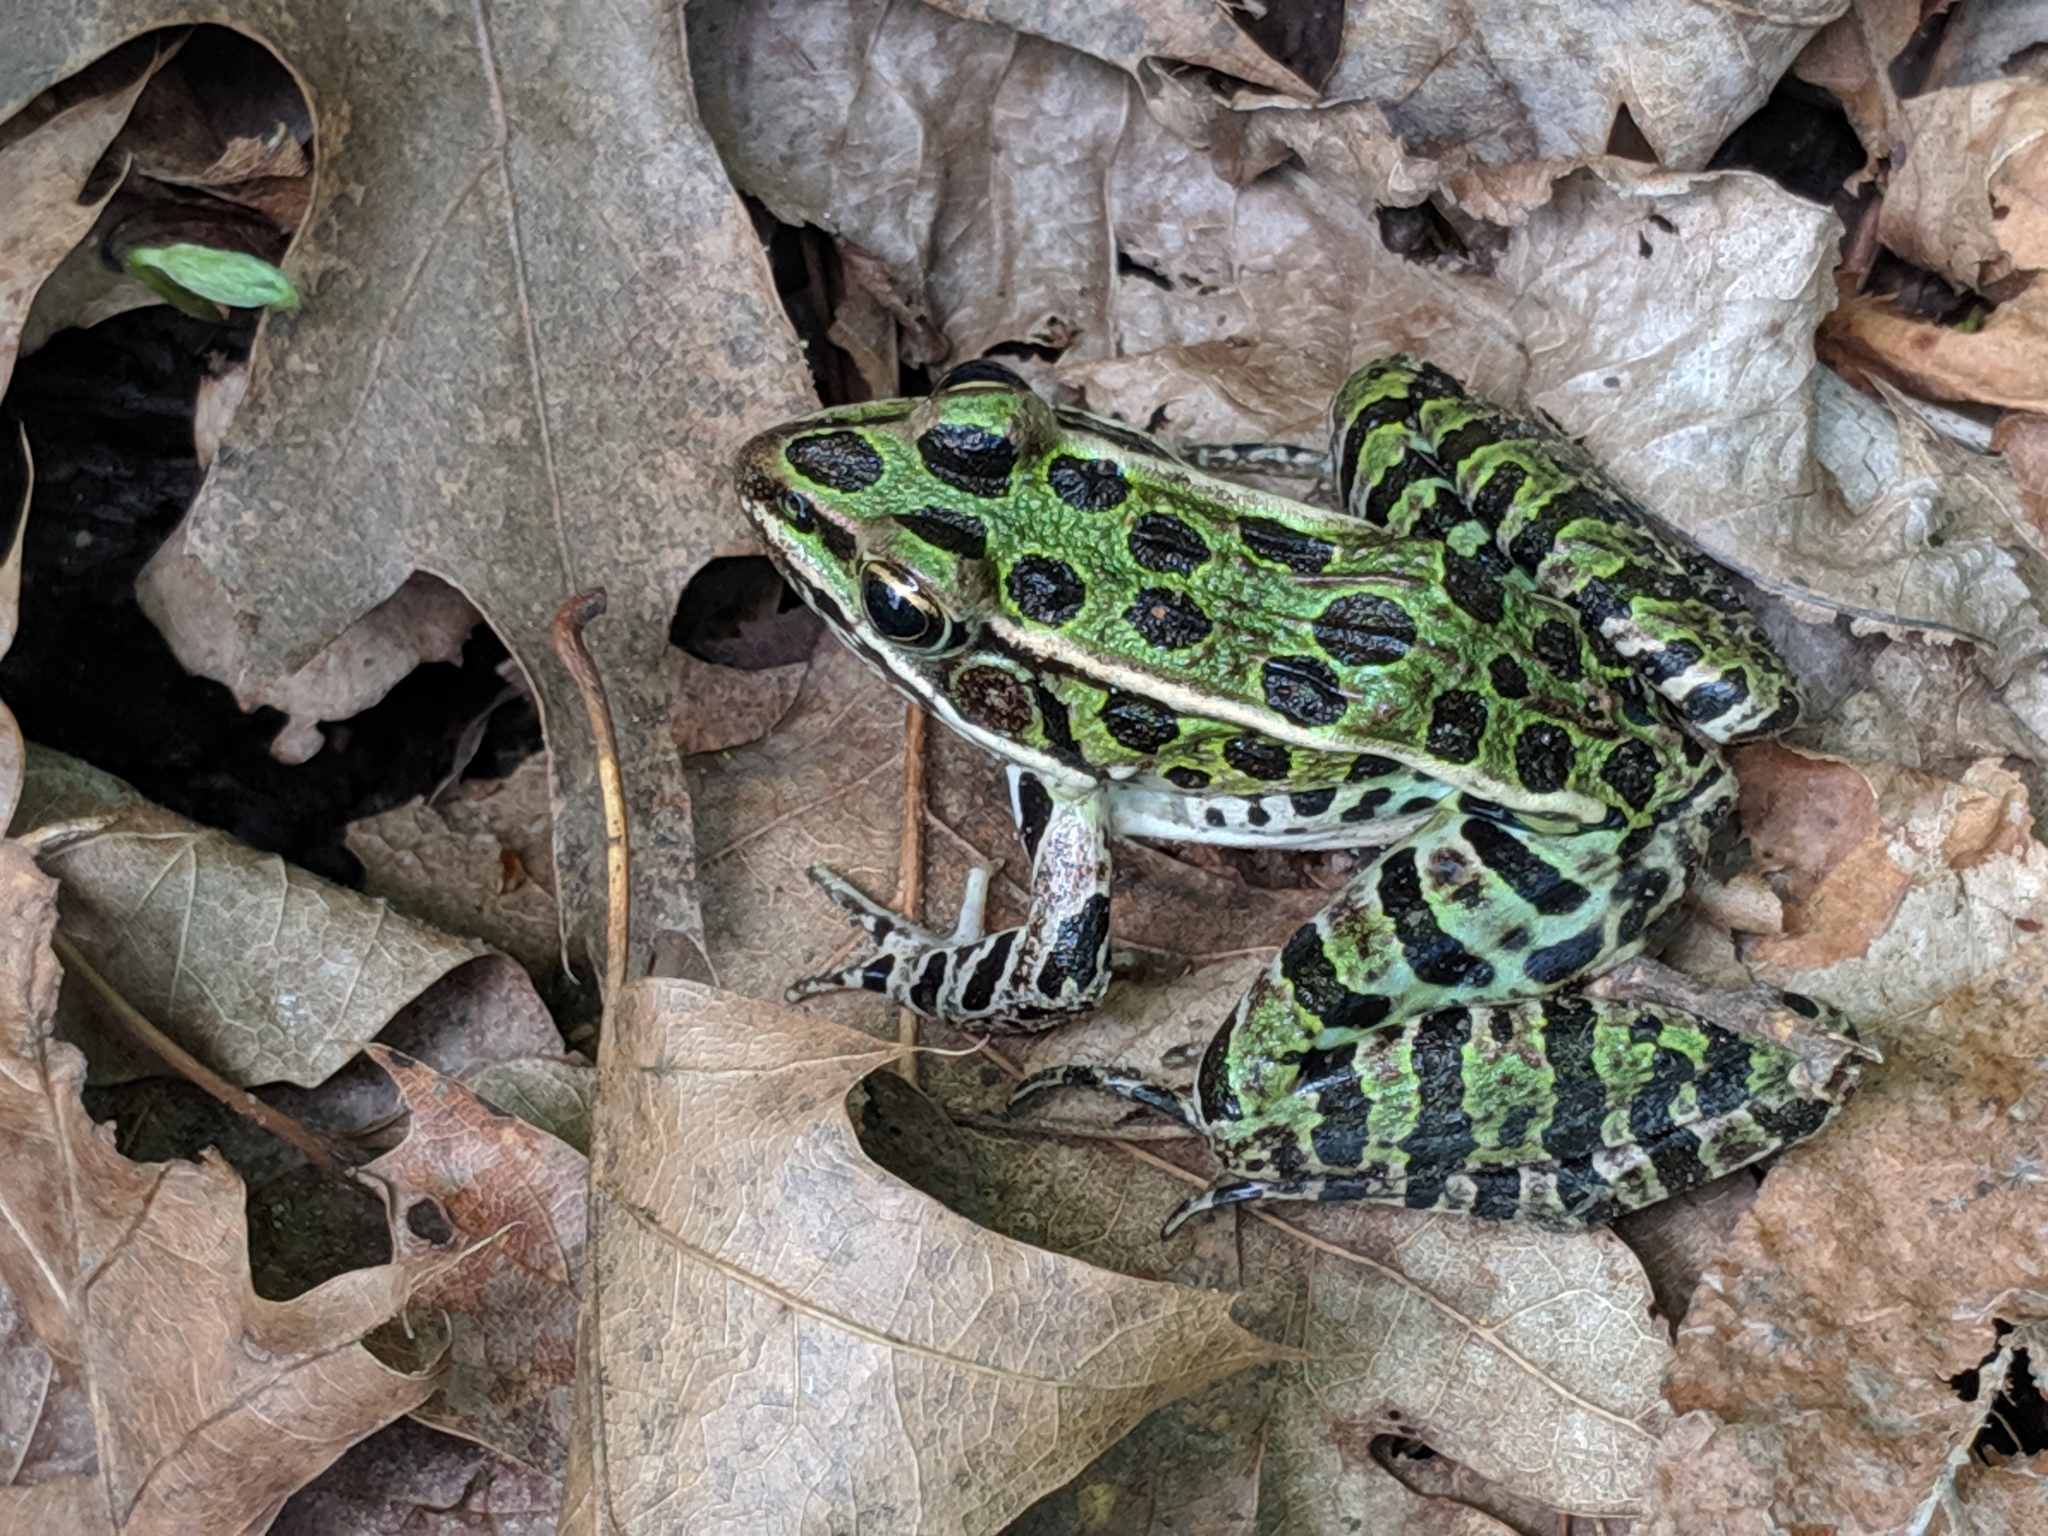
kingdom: Animalia
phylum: Chordata
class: Amphibia
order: Anura
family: Ranidae
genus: Lithobates
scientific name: Lithobates pipiens
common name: Northern leopard frog
